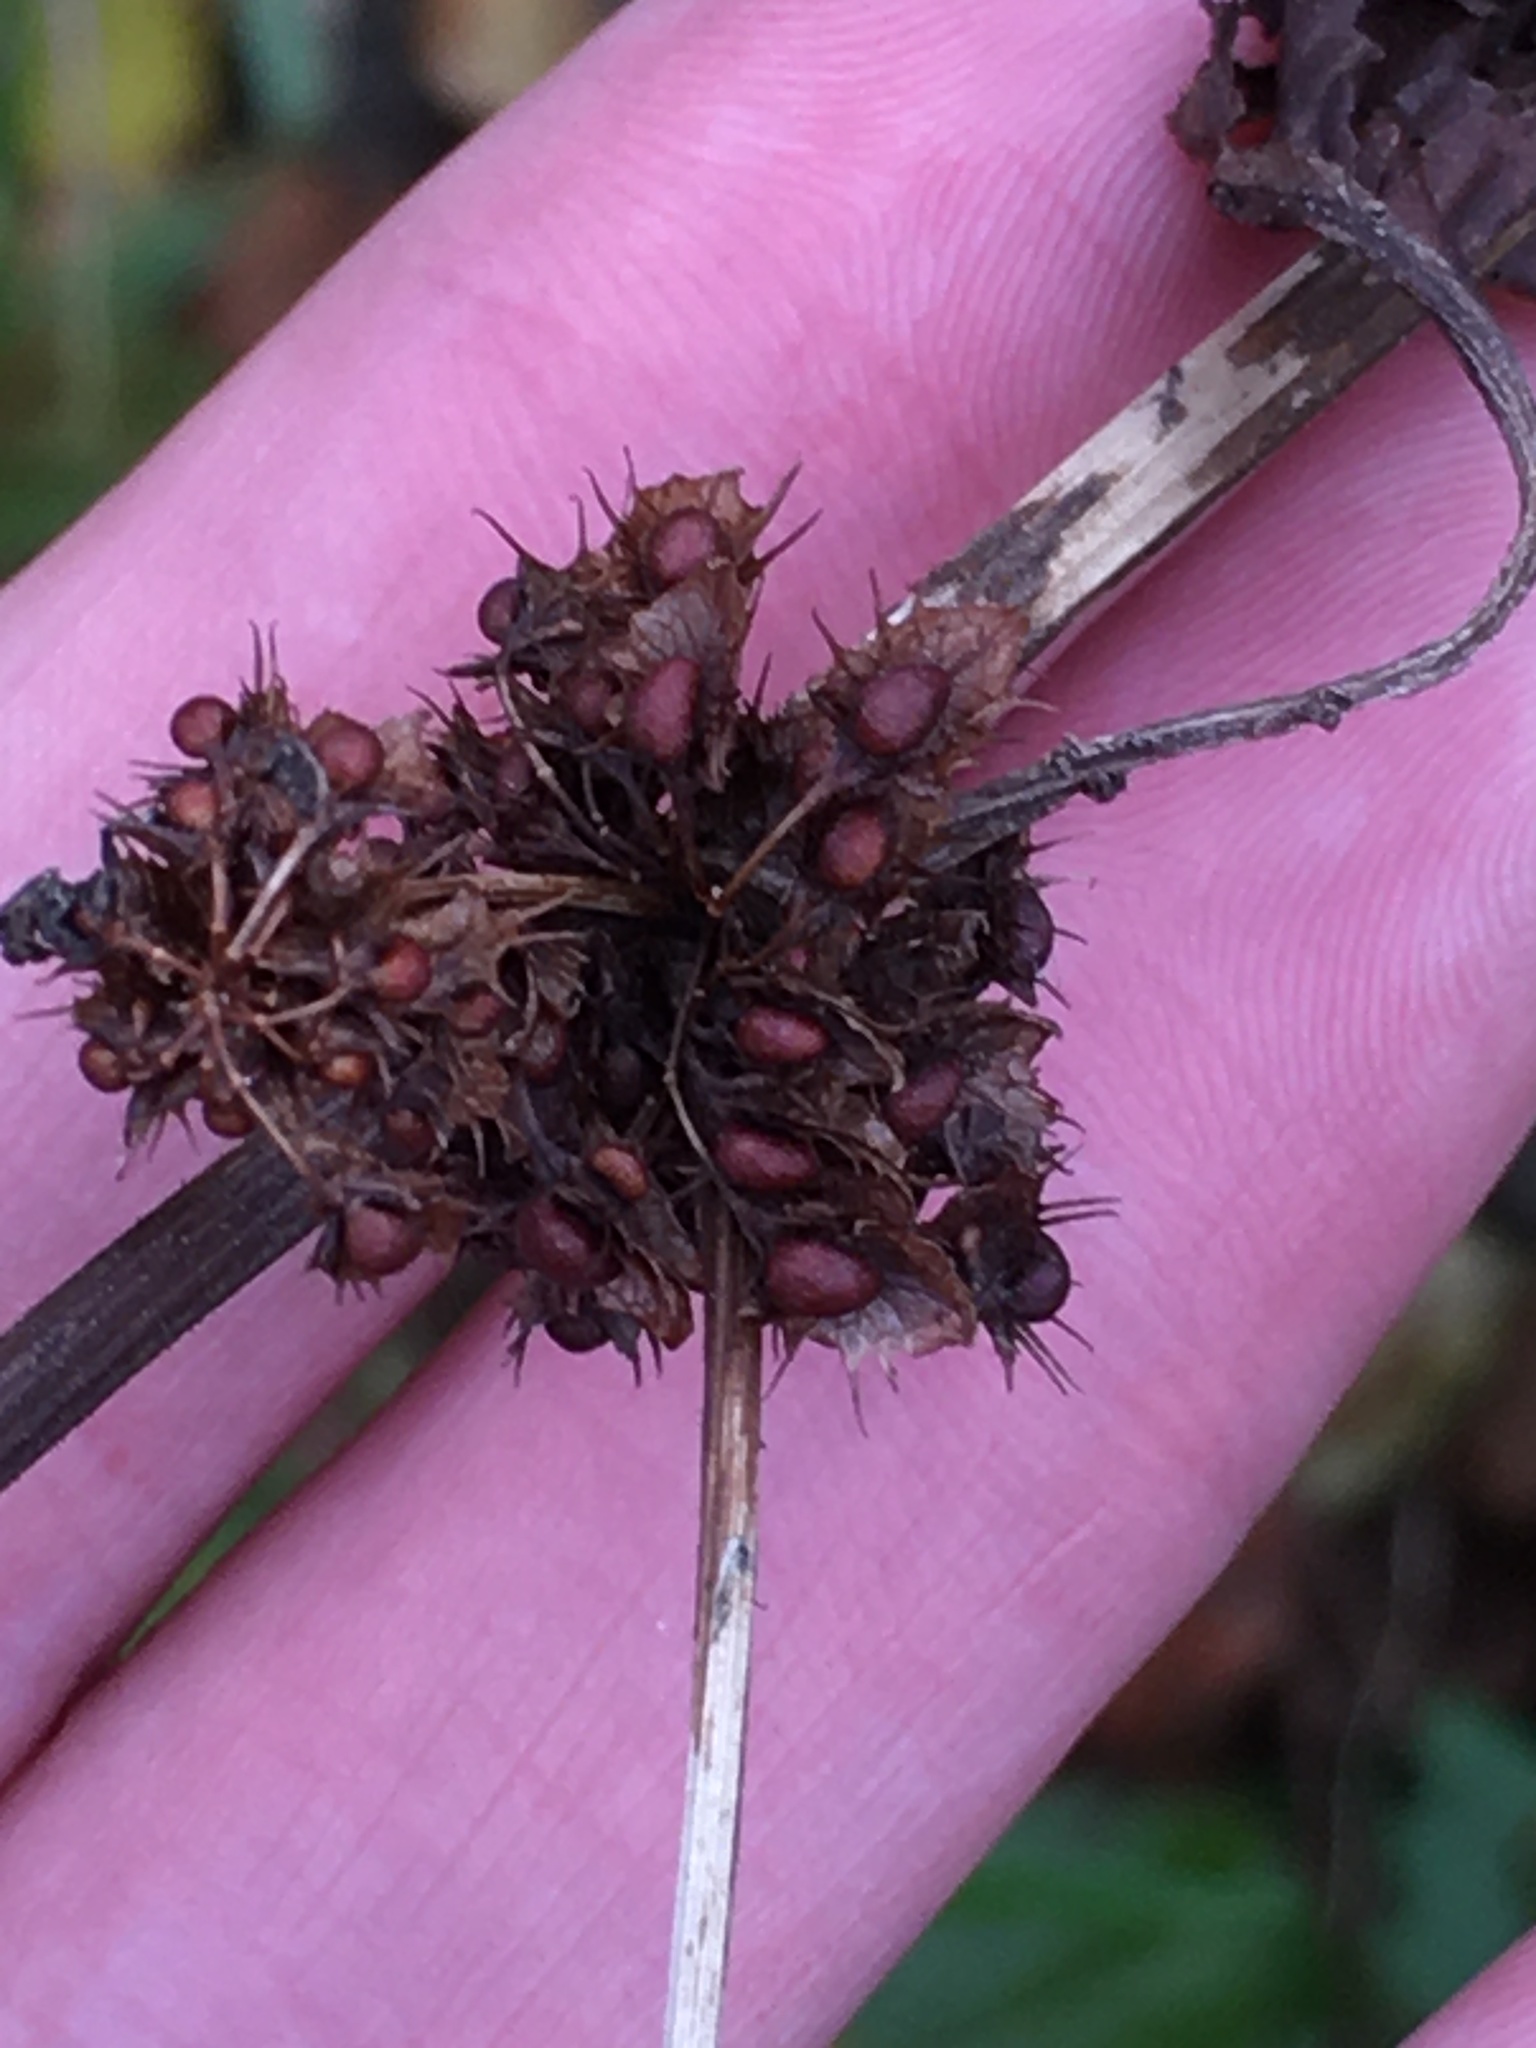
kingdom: Plantae
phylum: Tracheophyta
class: Magnoliopsida
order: Caryophyllales
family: Polygonaceae
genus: Rumex
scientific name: Rumex obtusifolius
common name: Bitter dock
